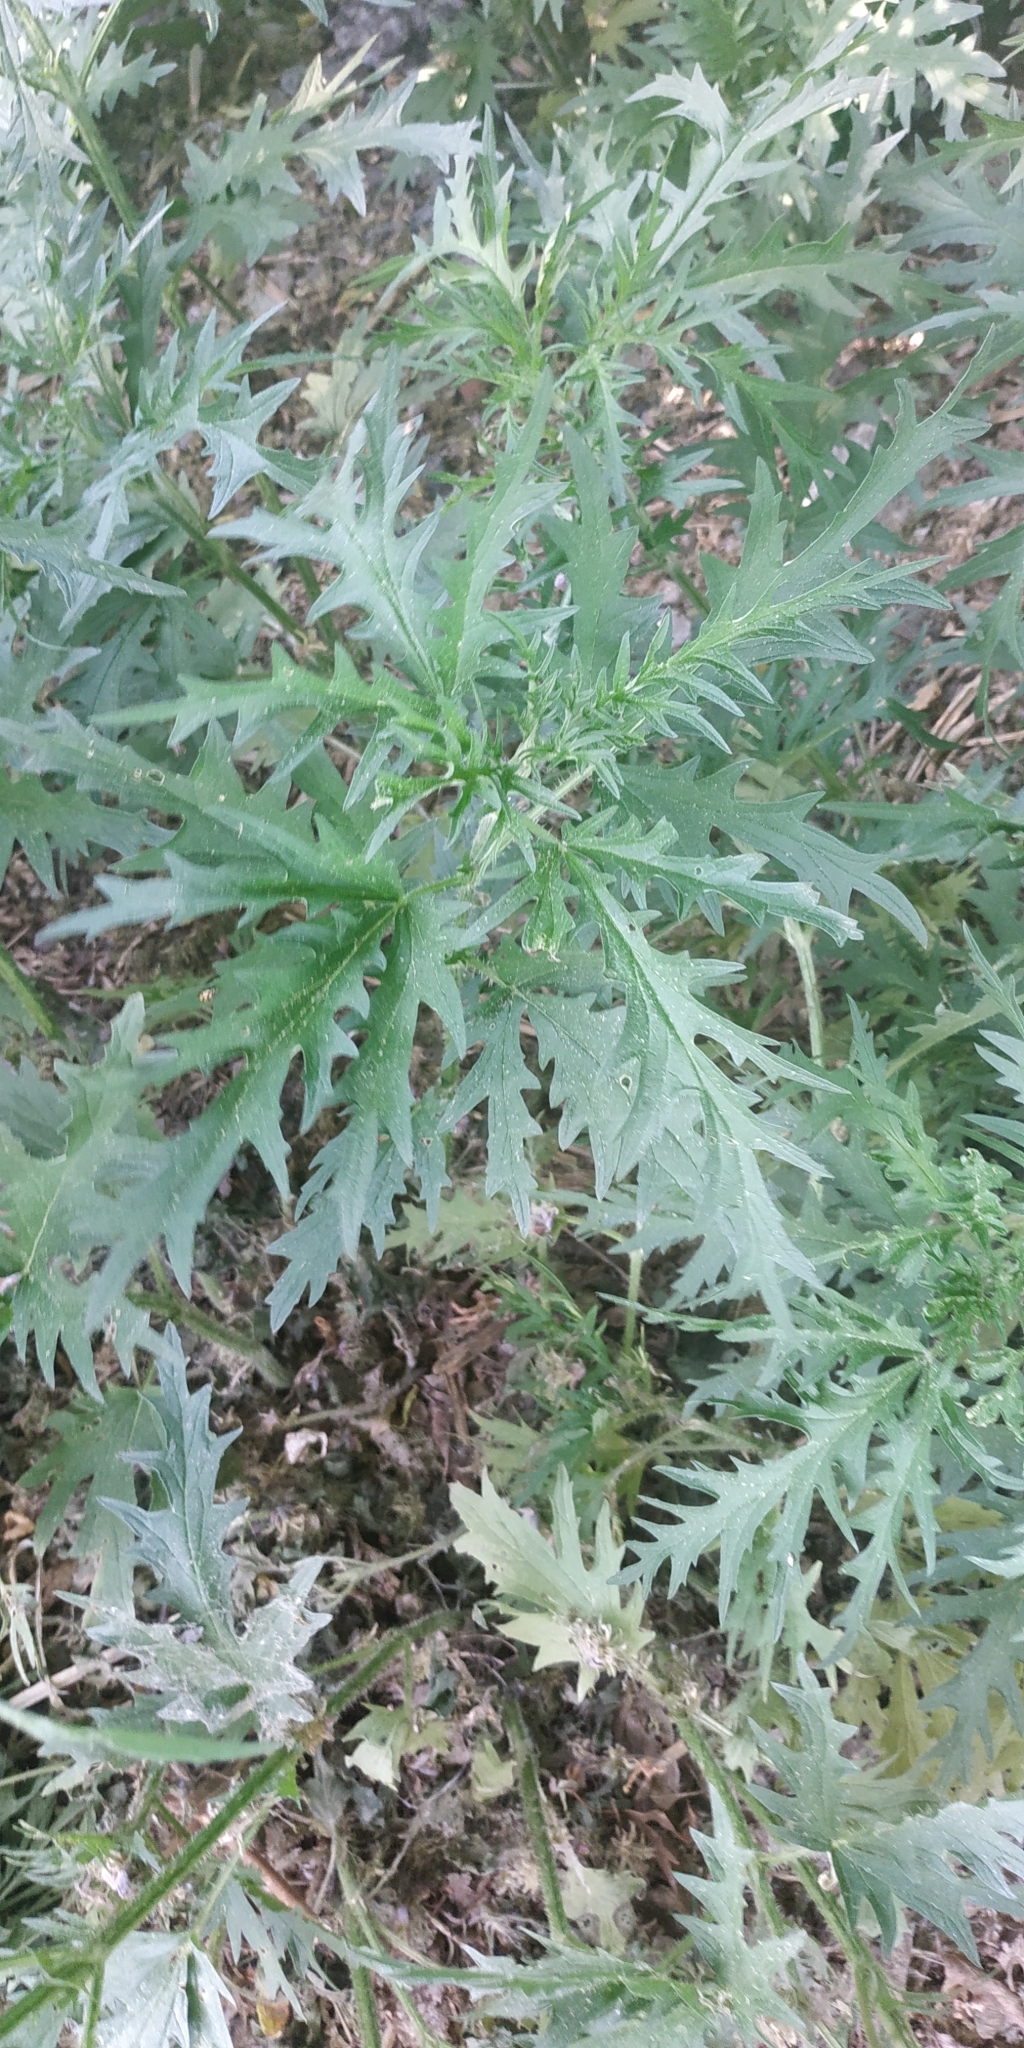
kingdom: Plantae
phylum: Tracheophyta
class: Magnoliopsida
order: Rosales
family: Urticaceae
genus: Urtica
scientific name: Urtica cannabina
